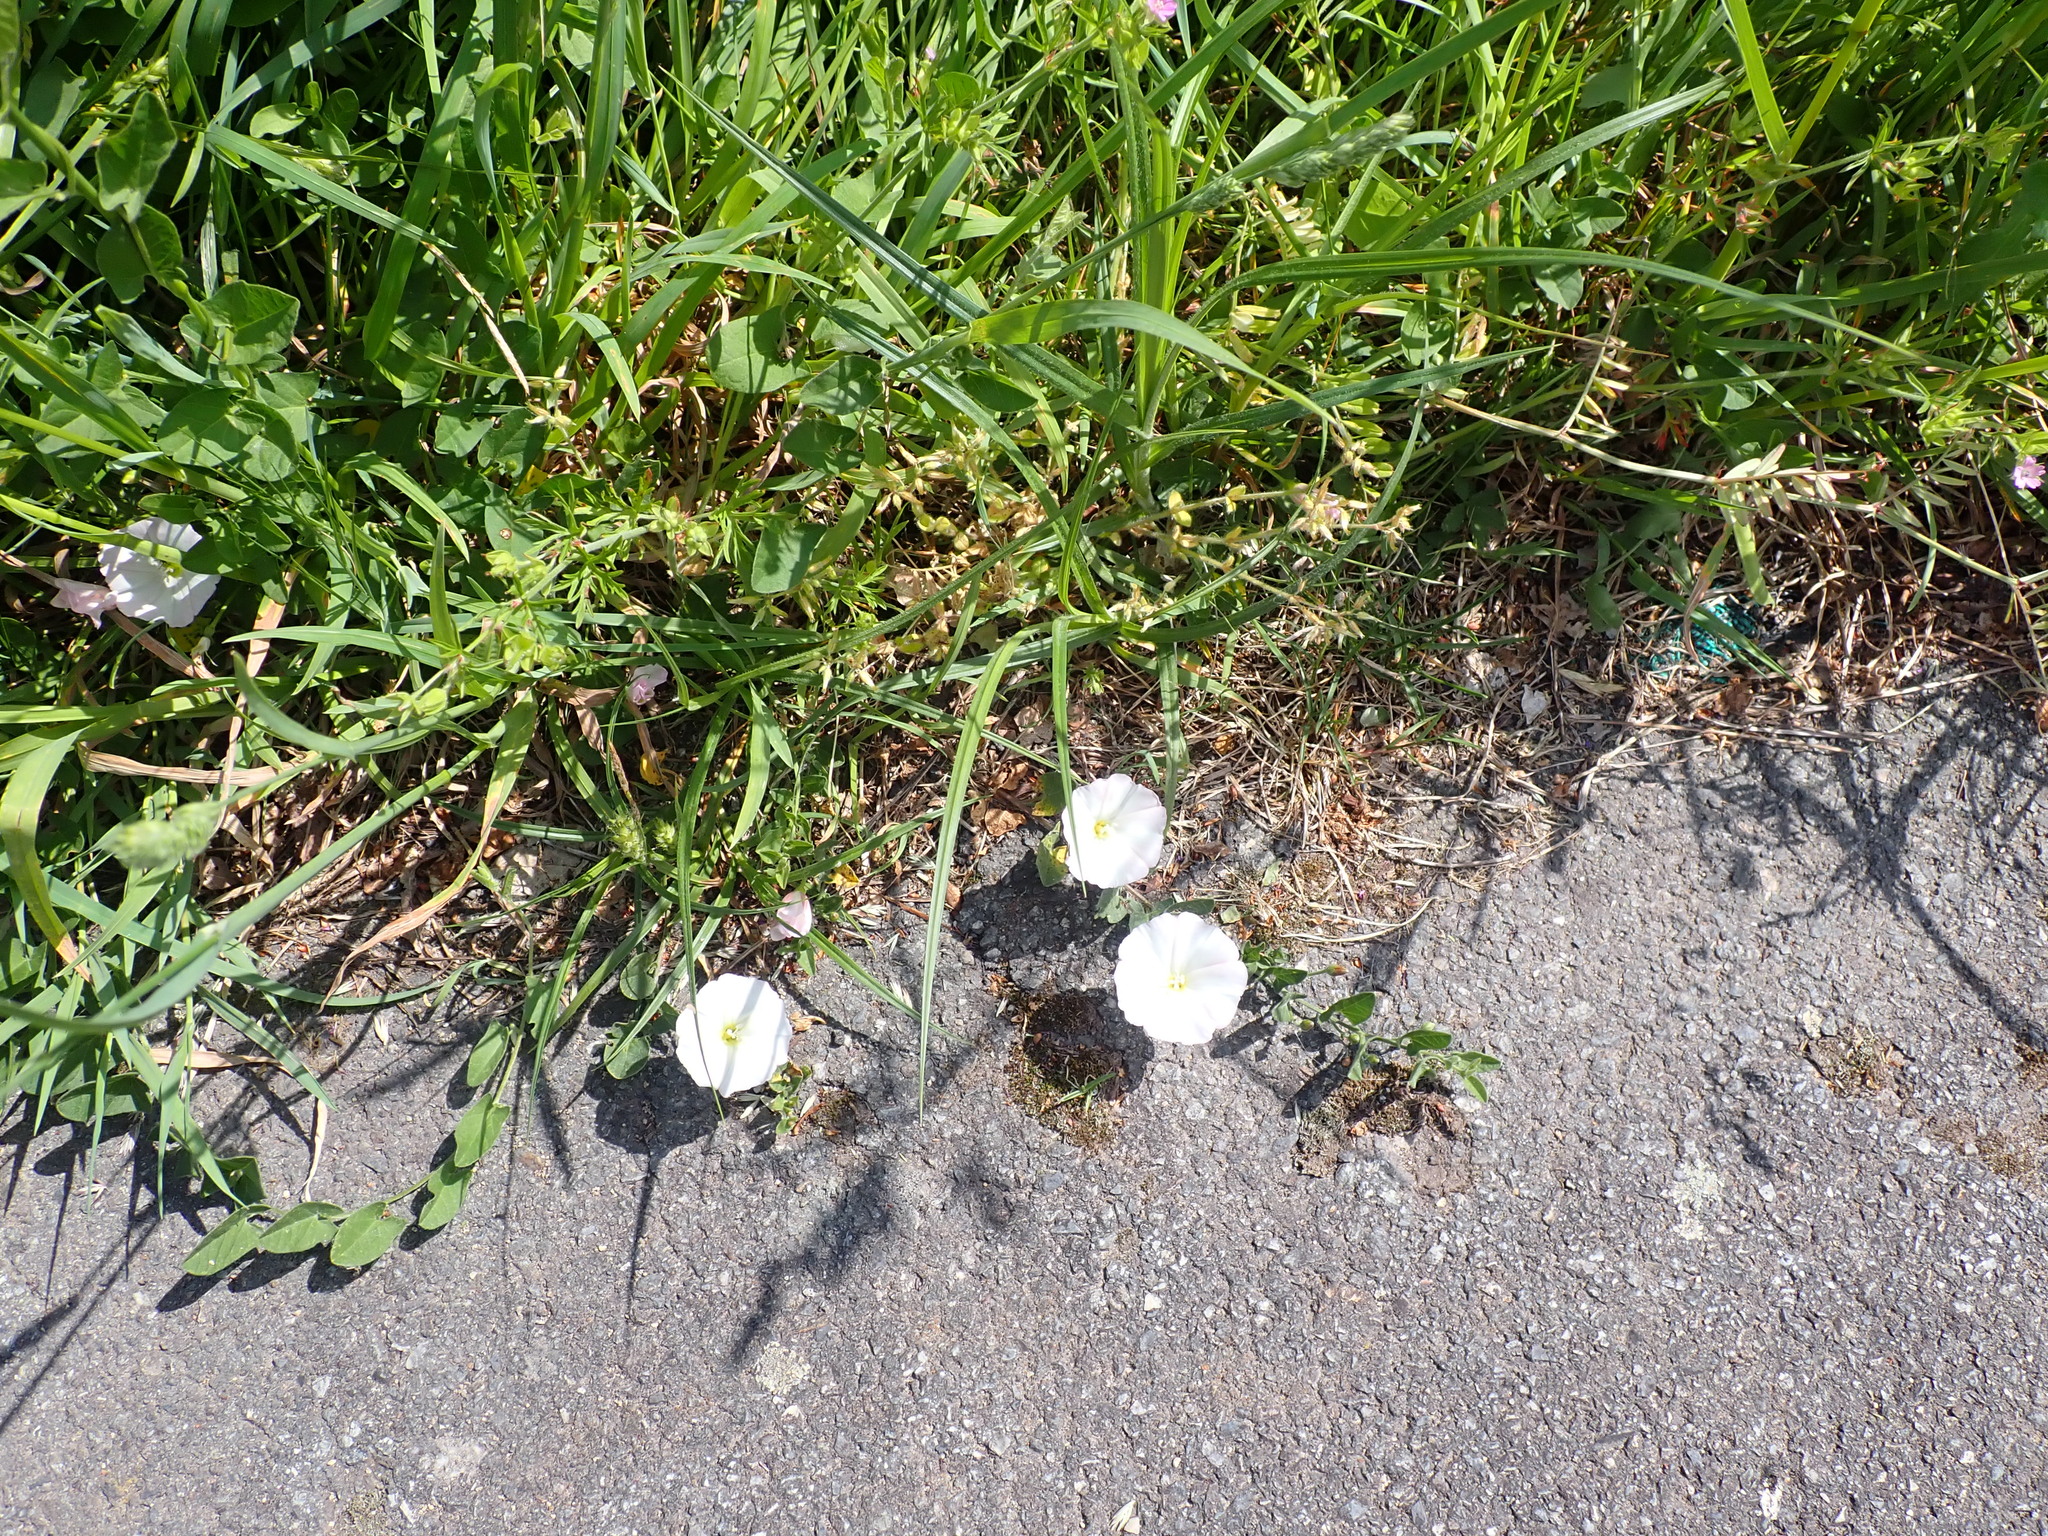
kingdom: Plantae
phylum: Tracheophyta
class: Magnoliopsida
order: Solanales
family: Convolvulaceae
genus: Convolvulus
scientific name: Convolvulus arvensis
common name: Field bindweed
